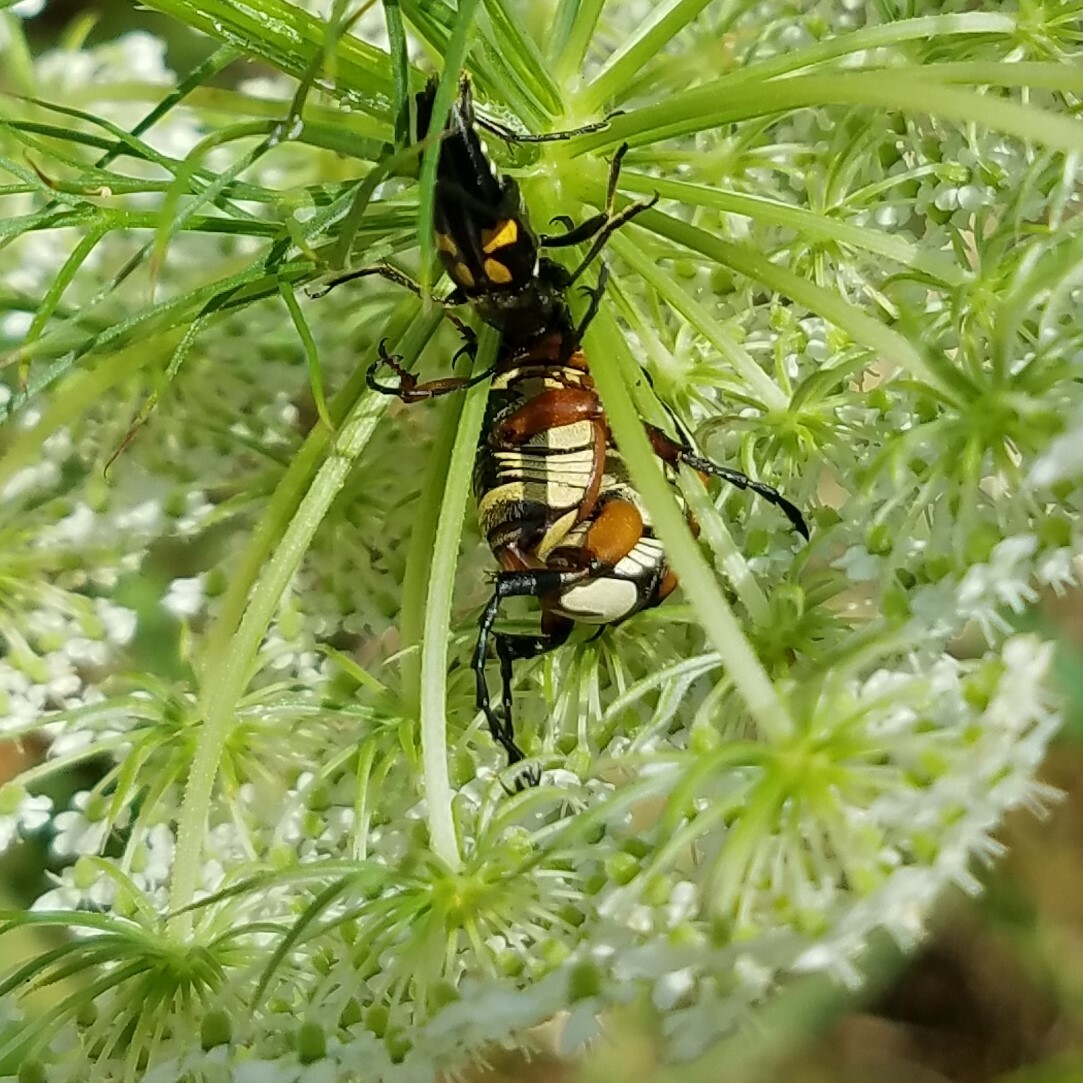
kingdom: Animalia
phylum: Arthropoda
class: Insecta
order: Coleoptera
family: Scarabaeidae
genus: Trigonopeltastes
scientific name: Trigonopeltastes delta
